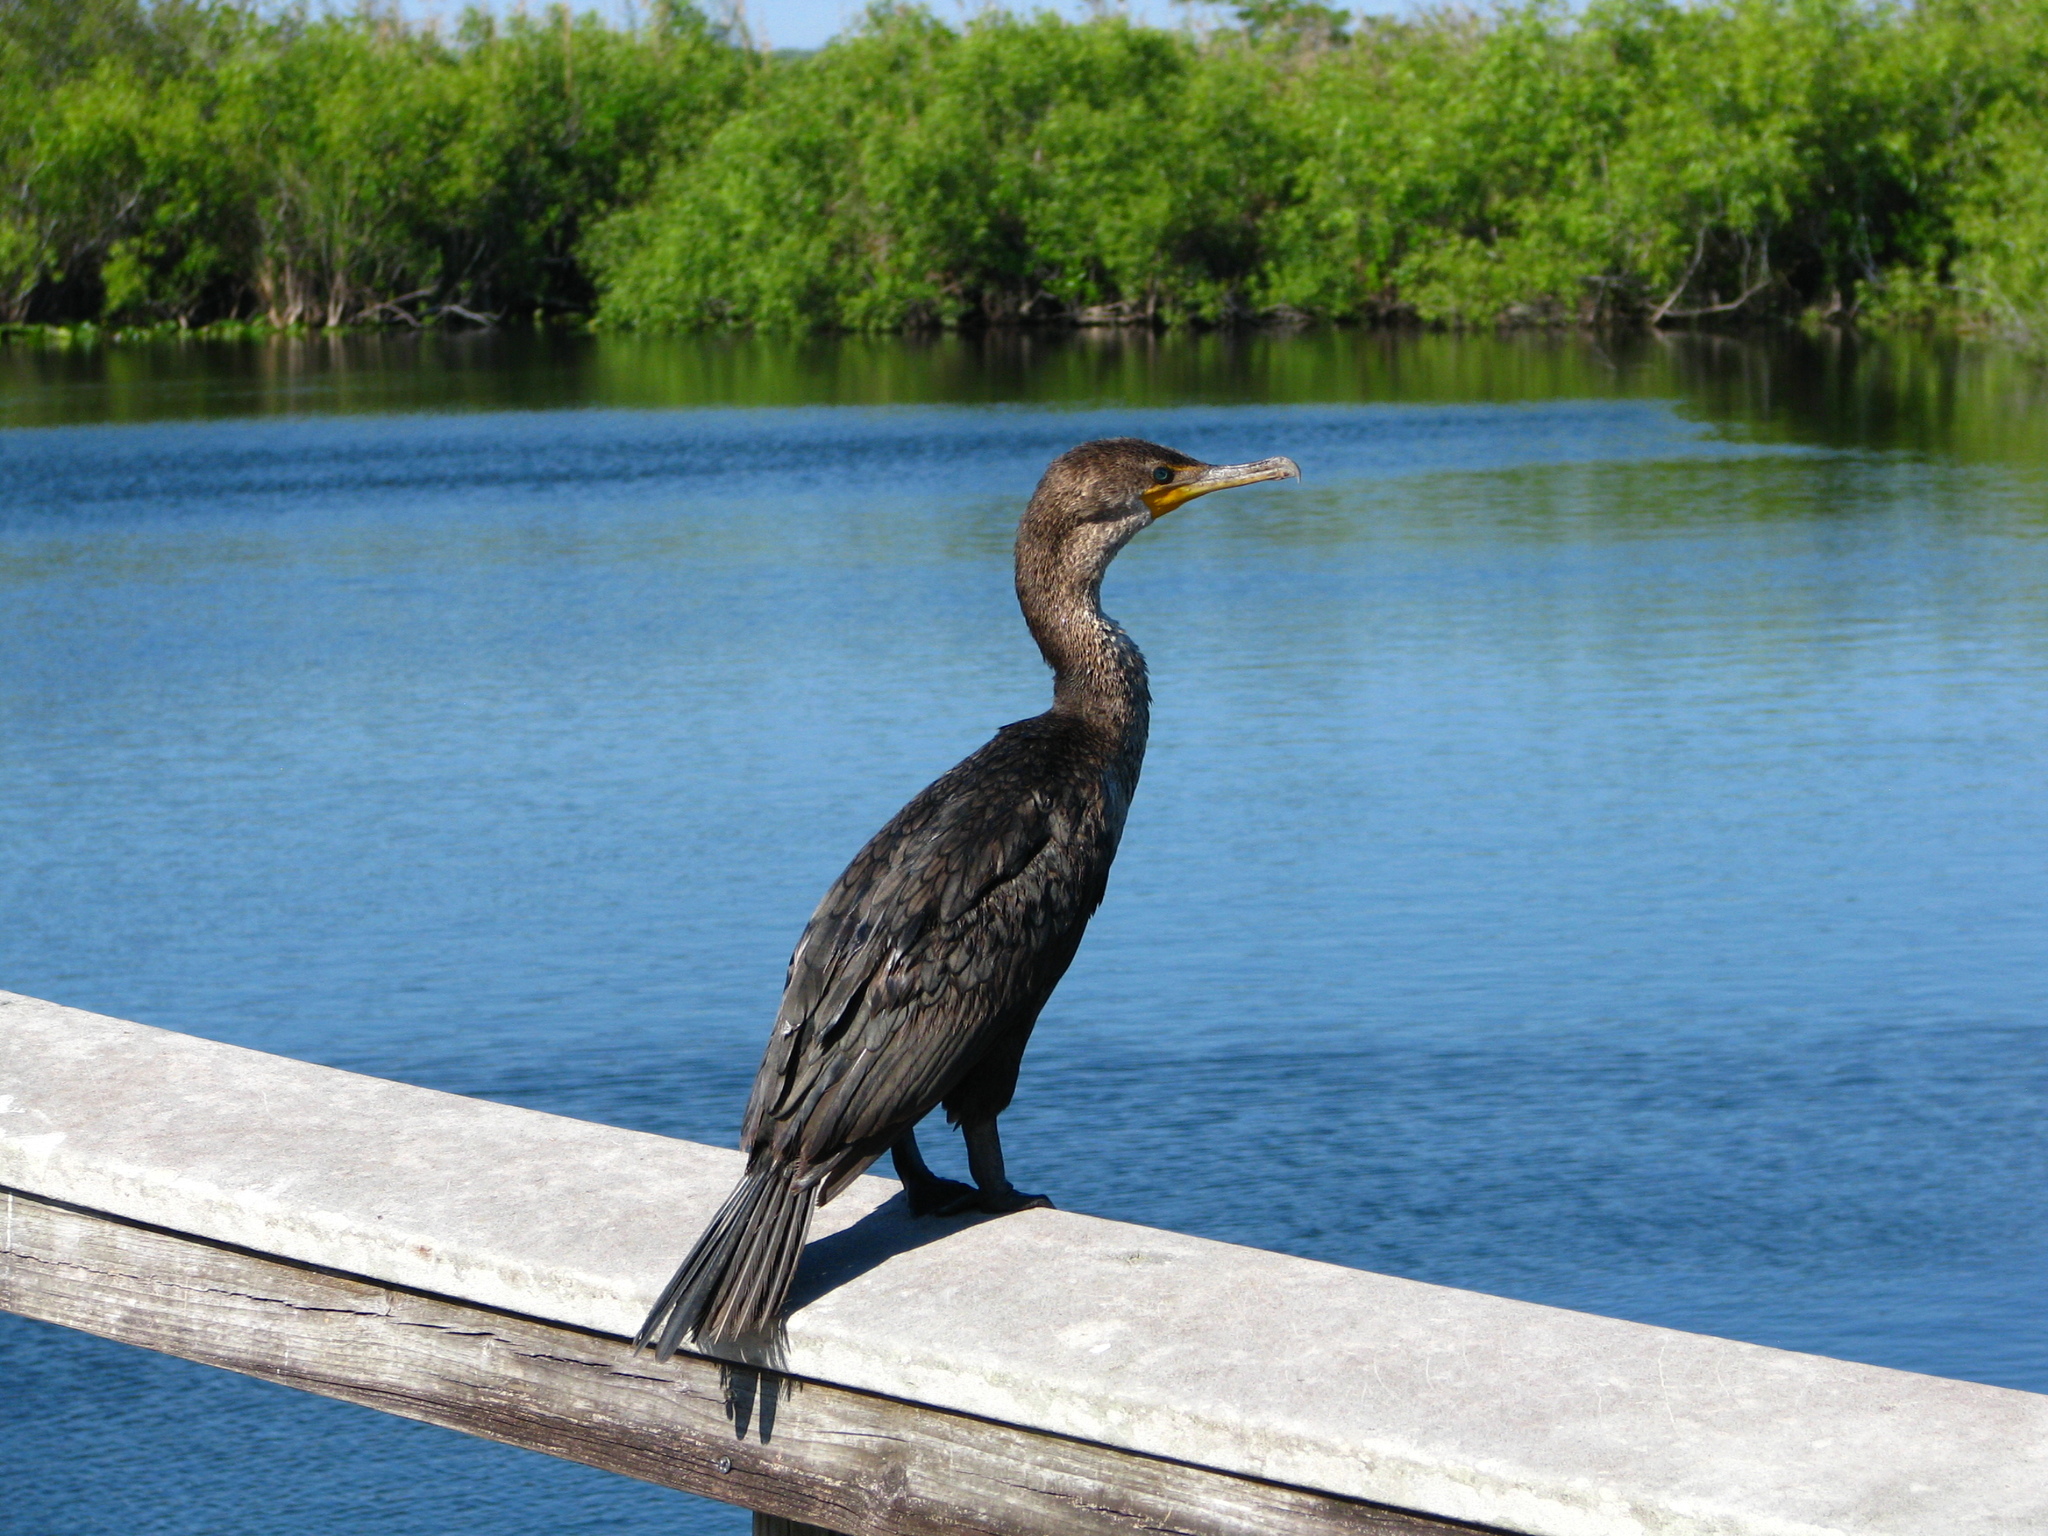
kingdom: Animalia
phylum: Chordata
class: Aves
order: Suliformes
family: Phalacrocoracidae
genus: Phalacrocorax
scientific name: Phalacrocorax auritus
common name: Double-crested cormorant
